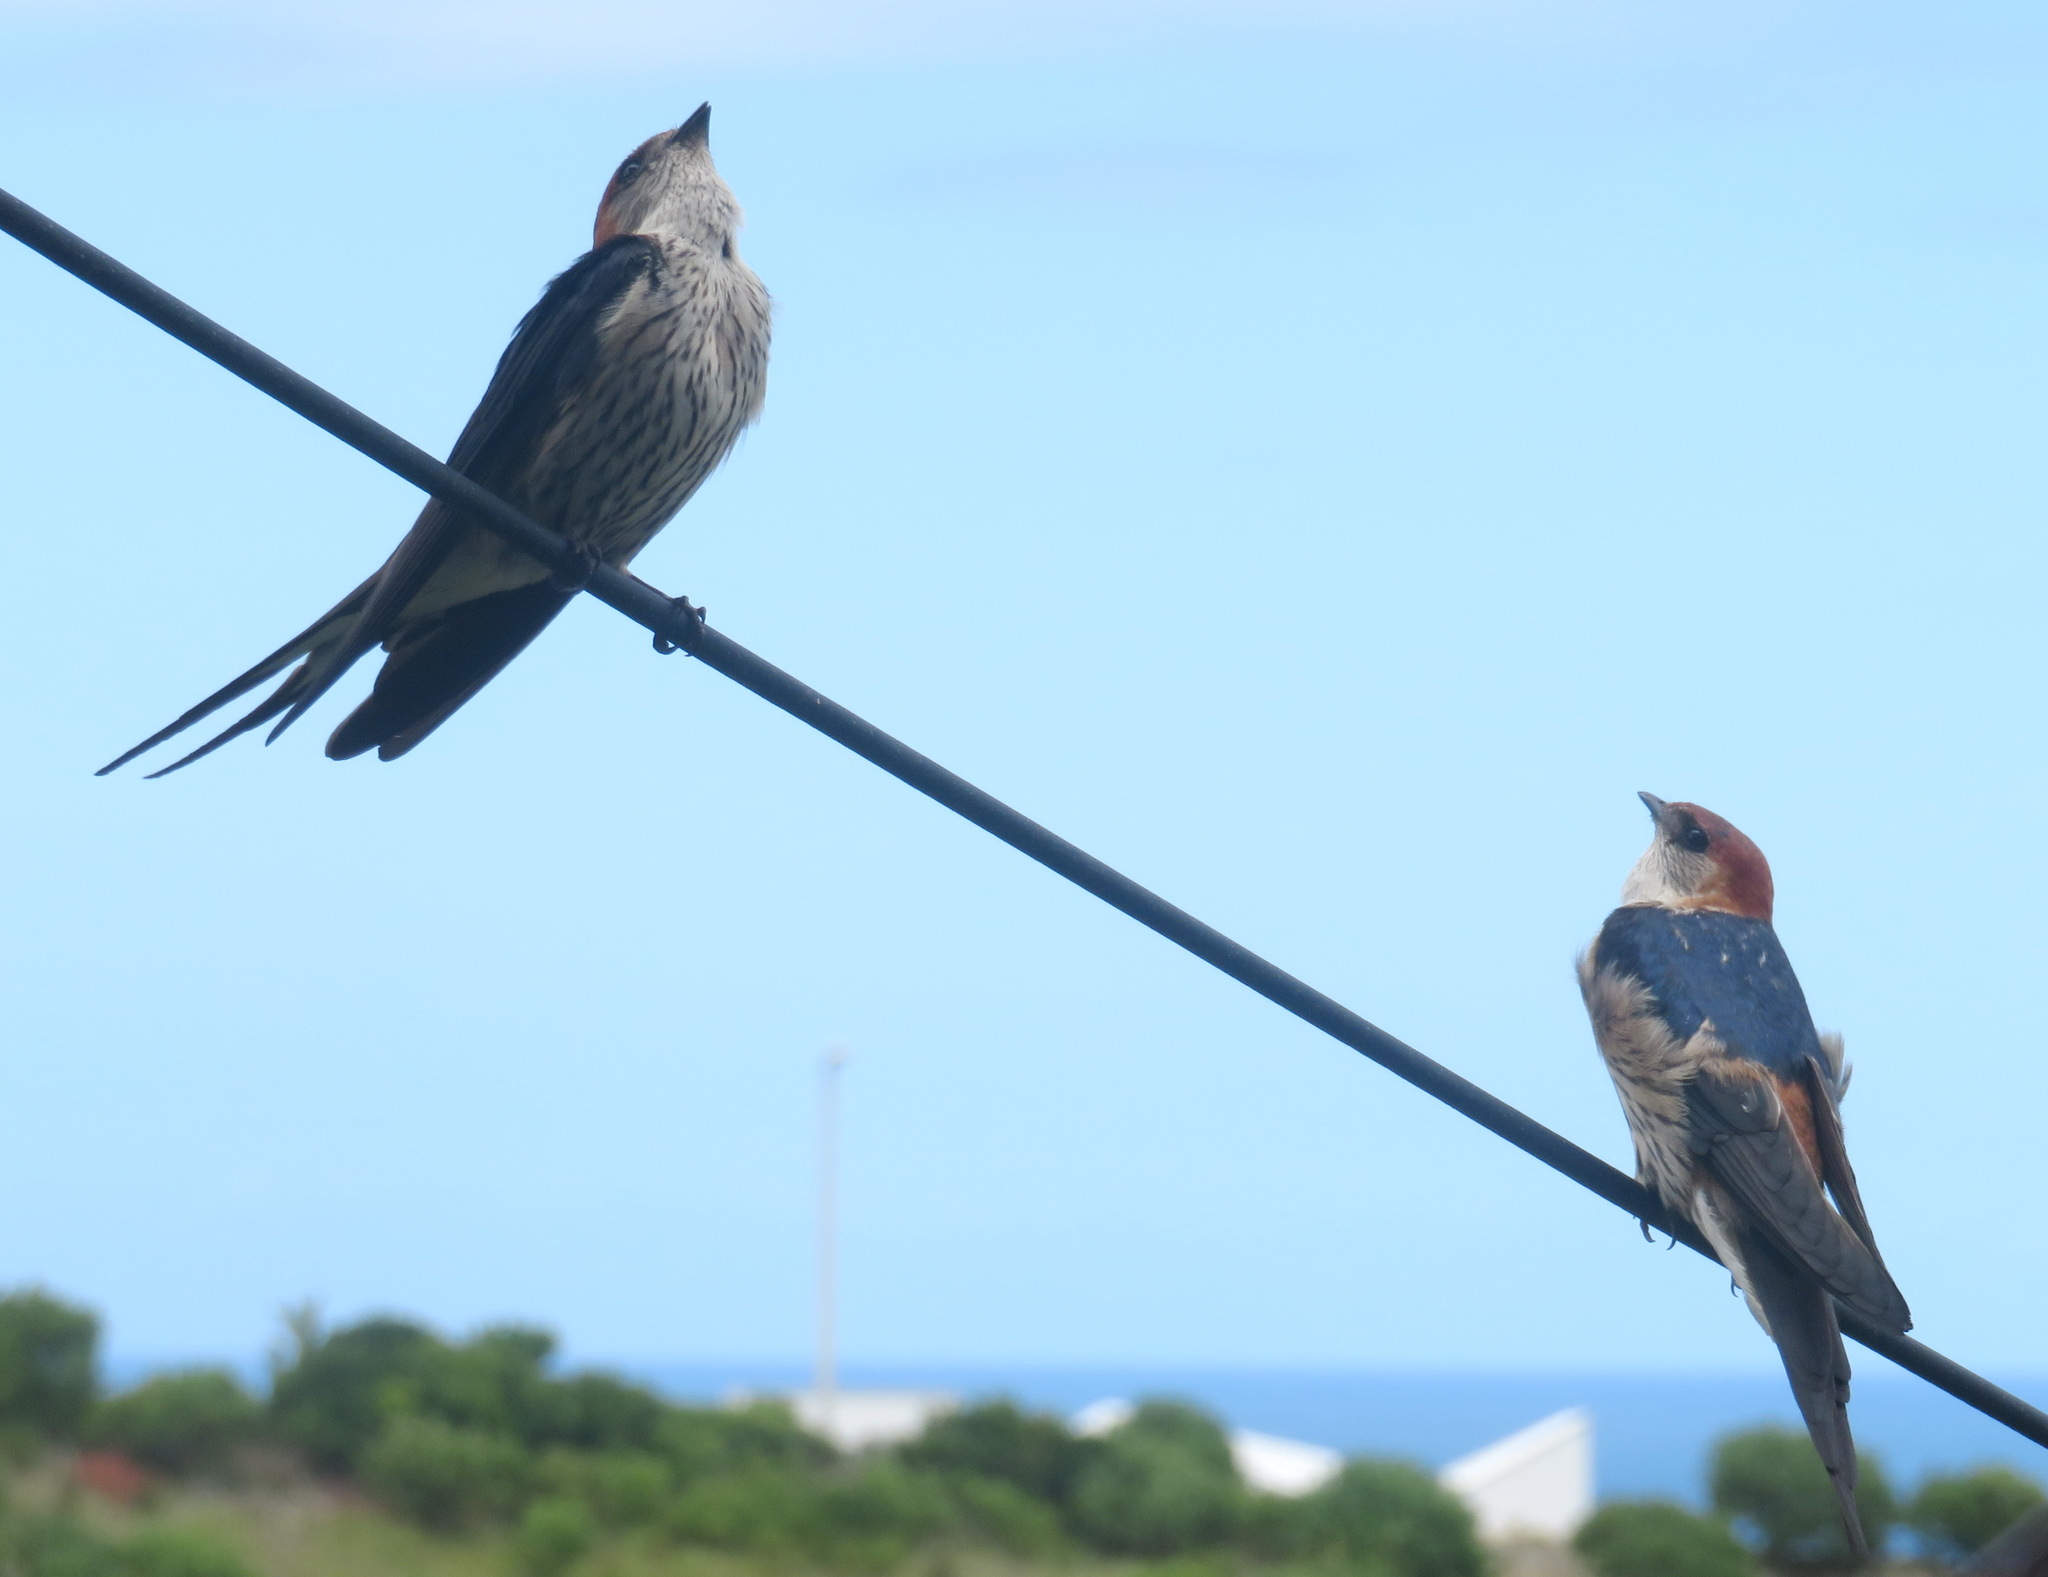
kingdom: Animalia
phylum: Chordata
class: Aves
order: Passeriformes
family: Hirundinidae
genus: Cecropis
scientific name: Cecropis cucullata
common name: Greater striped-swallow
